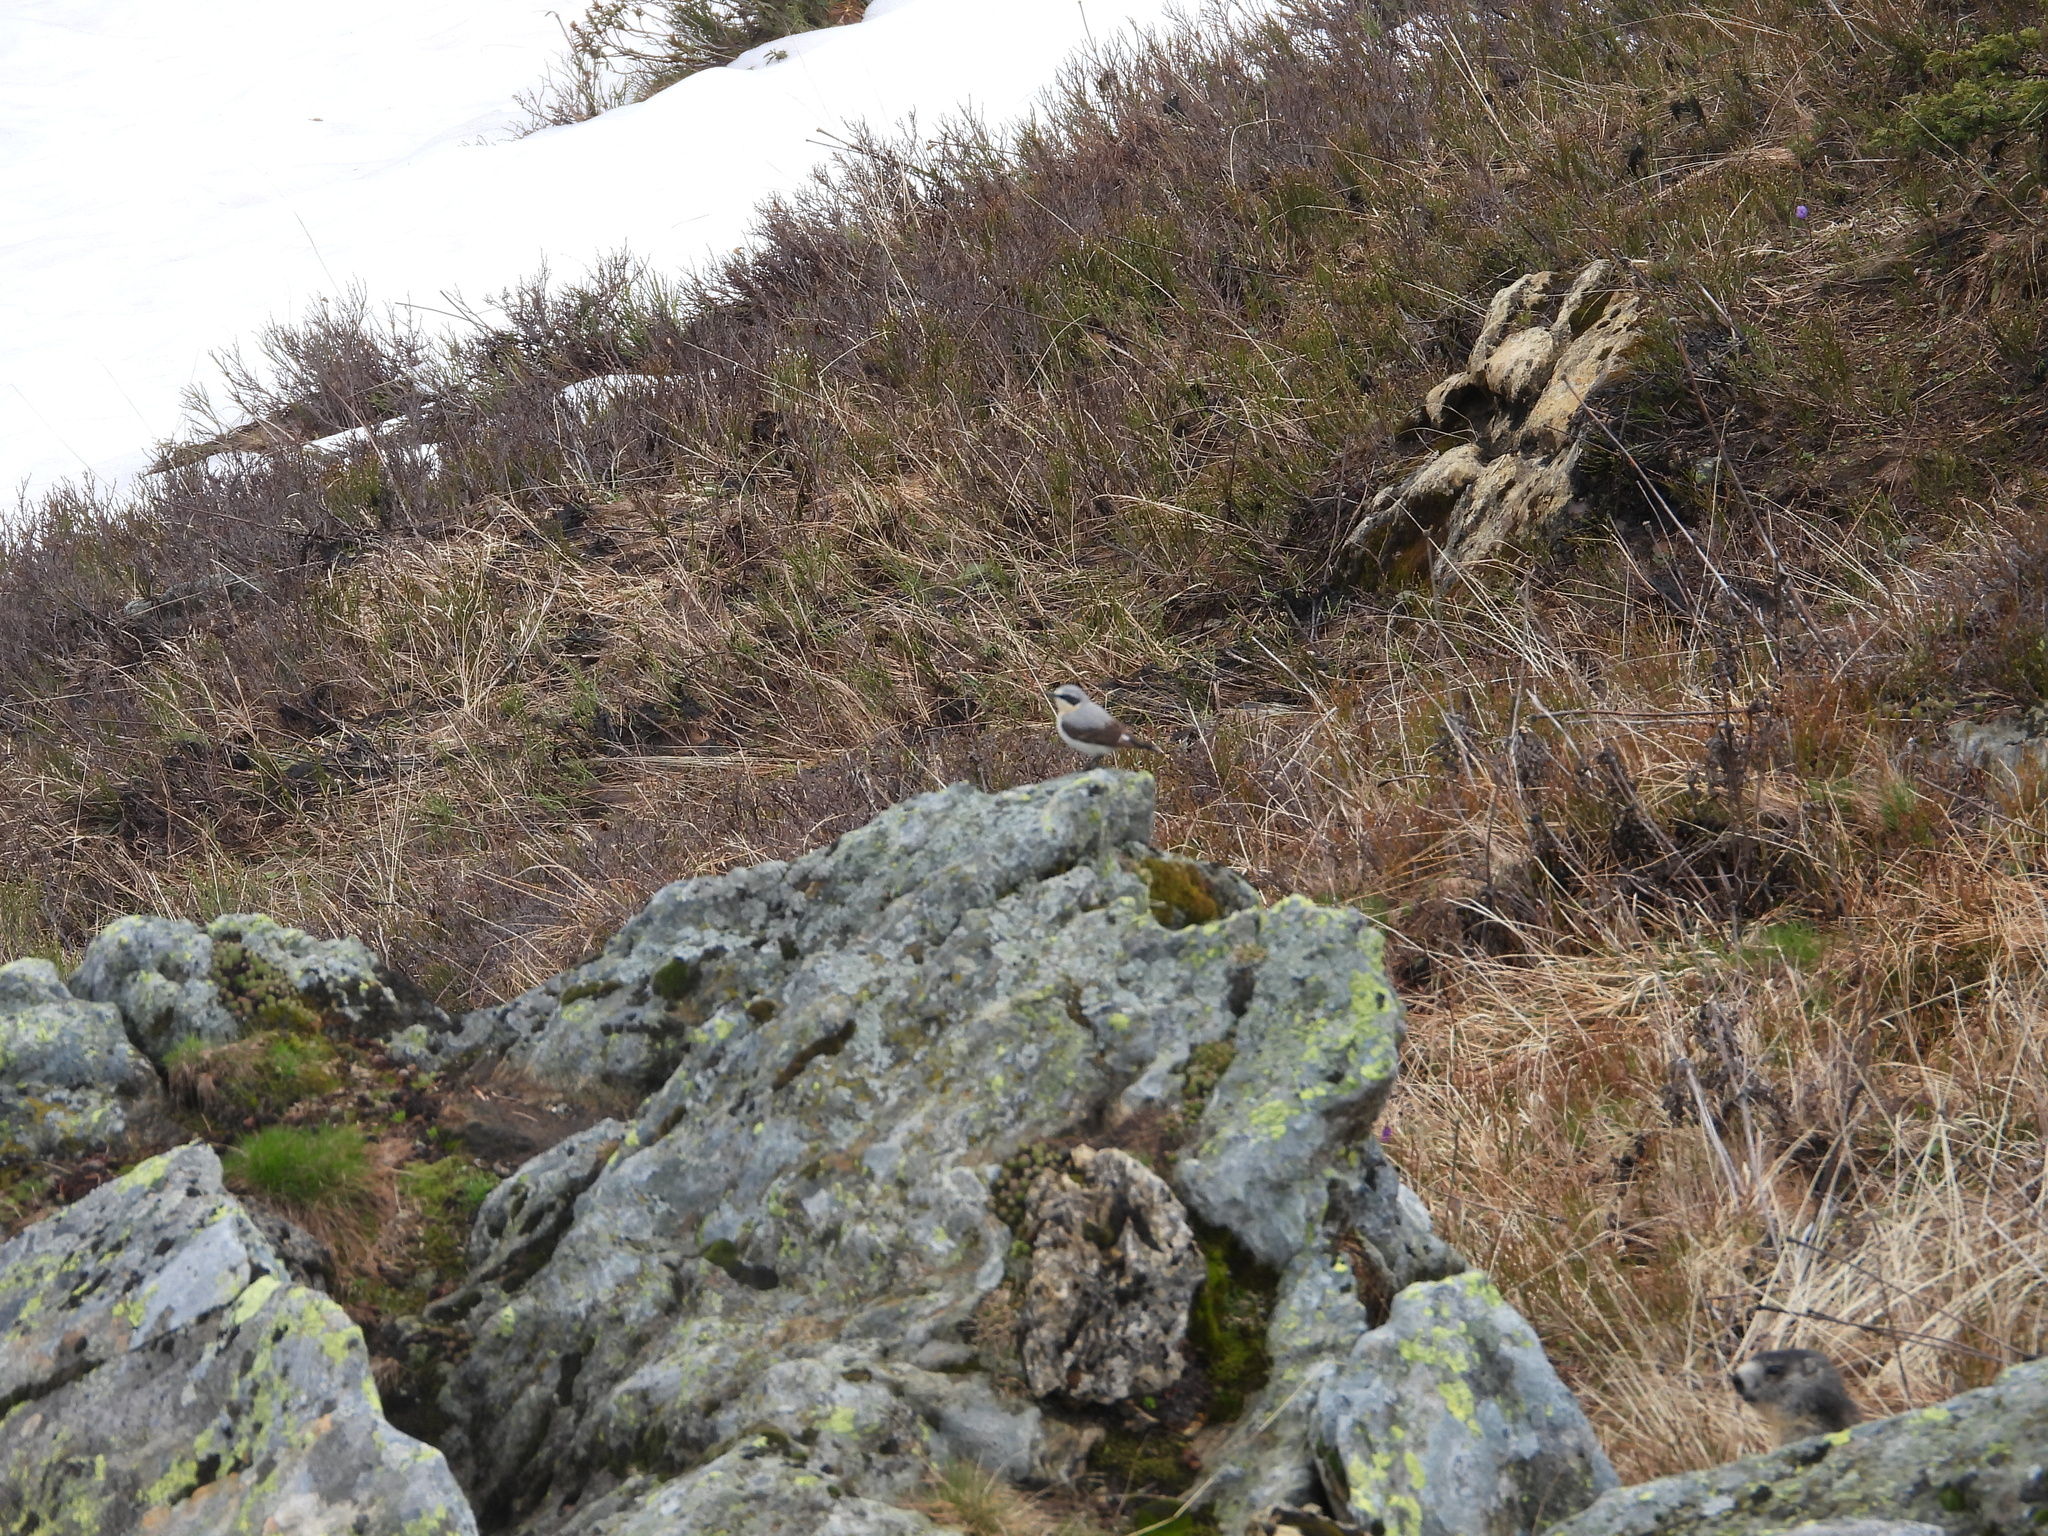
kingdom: Animalia
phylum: Chordata
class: Aves
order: Passeriformes
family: Muscicapidae
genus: Oenanthe
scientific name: Oenanthe oenanthe
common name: Northern wheatear
